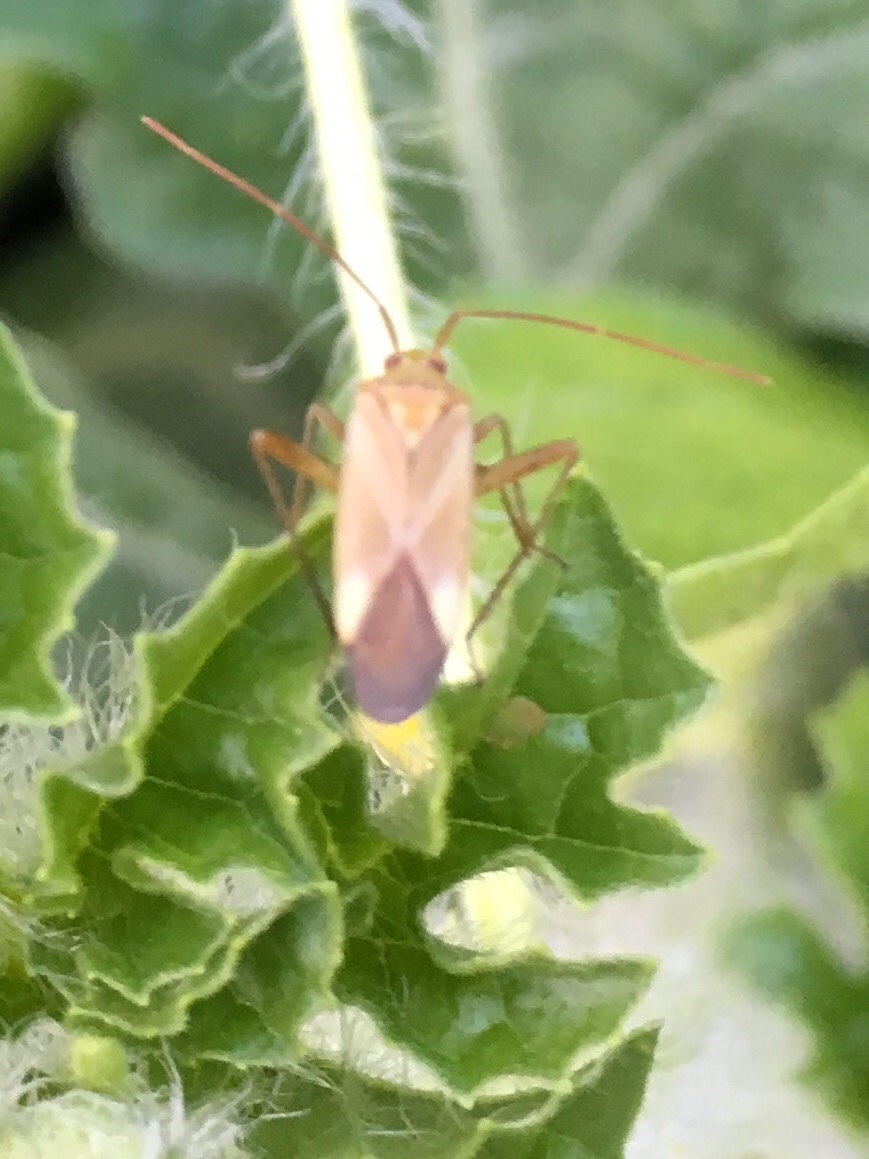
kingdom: Animalia
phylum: Arthropoda
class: Insecta
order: Hemiptera
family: Miridae
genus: Adelphocoris
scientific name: Adelphocoris lineolatus
